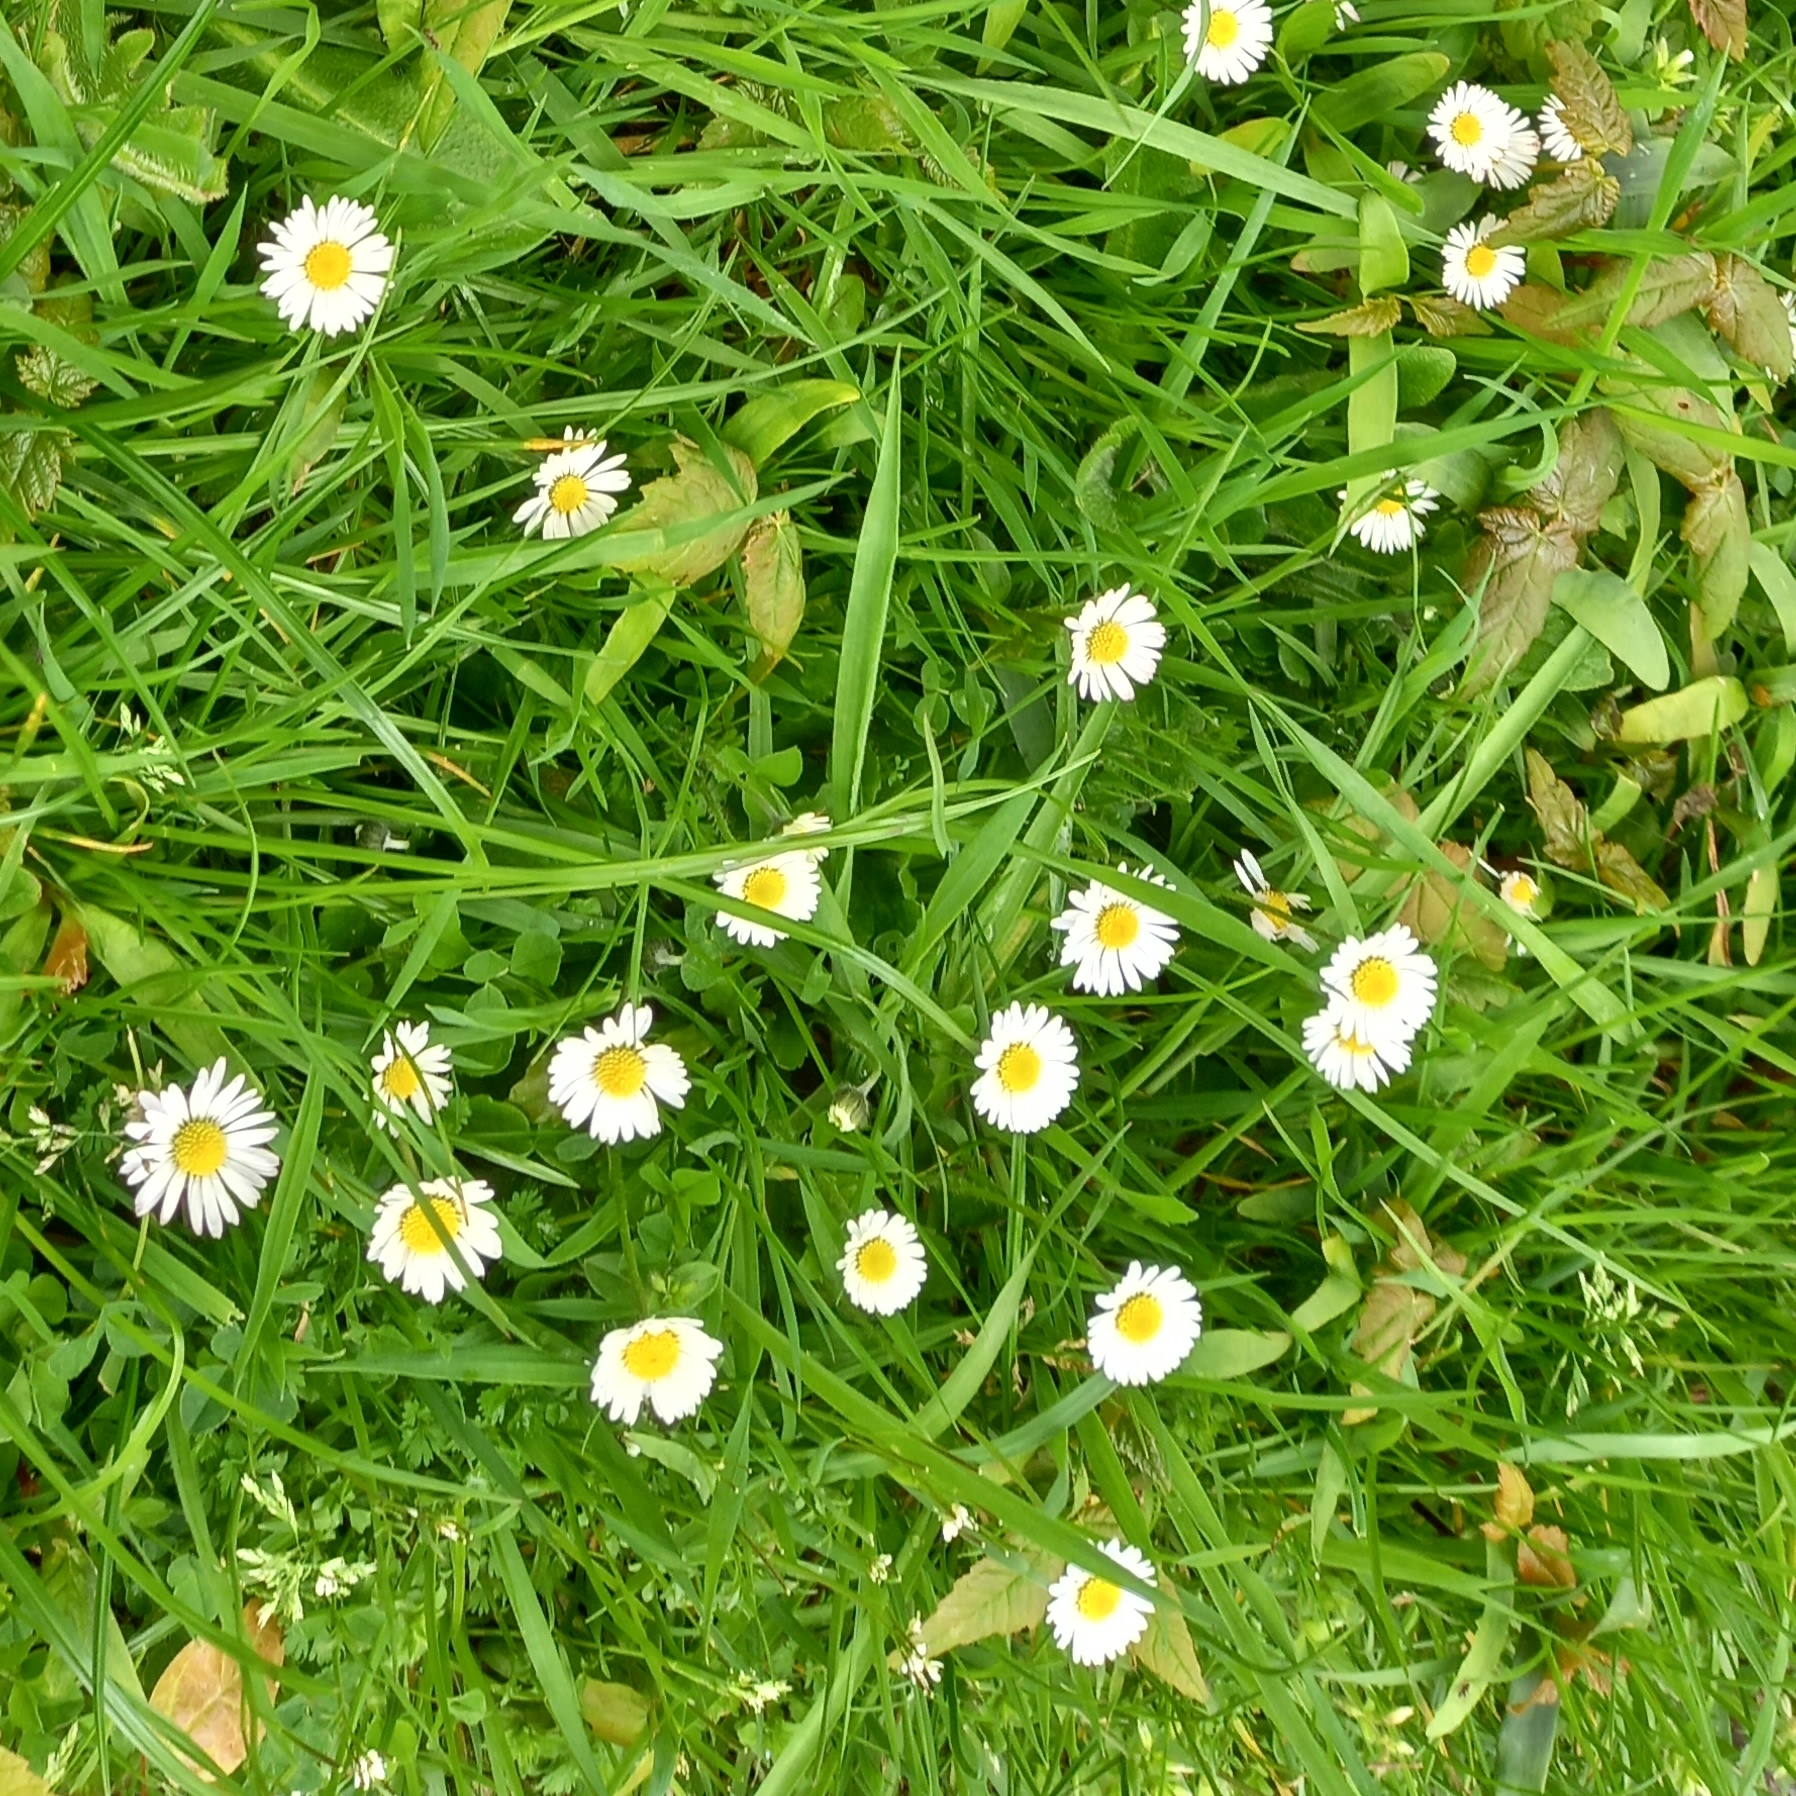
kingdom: Plantae
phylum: Tracheophyta
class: Magnoliopsida
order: Asterales
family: Asteraceae
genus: Bellis
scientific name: Bellis perennis
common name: Lawndaisy
